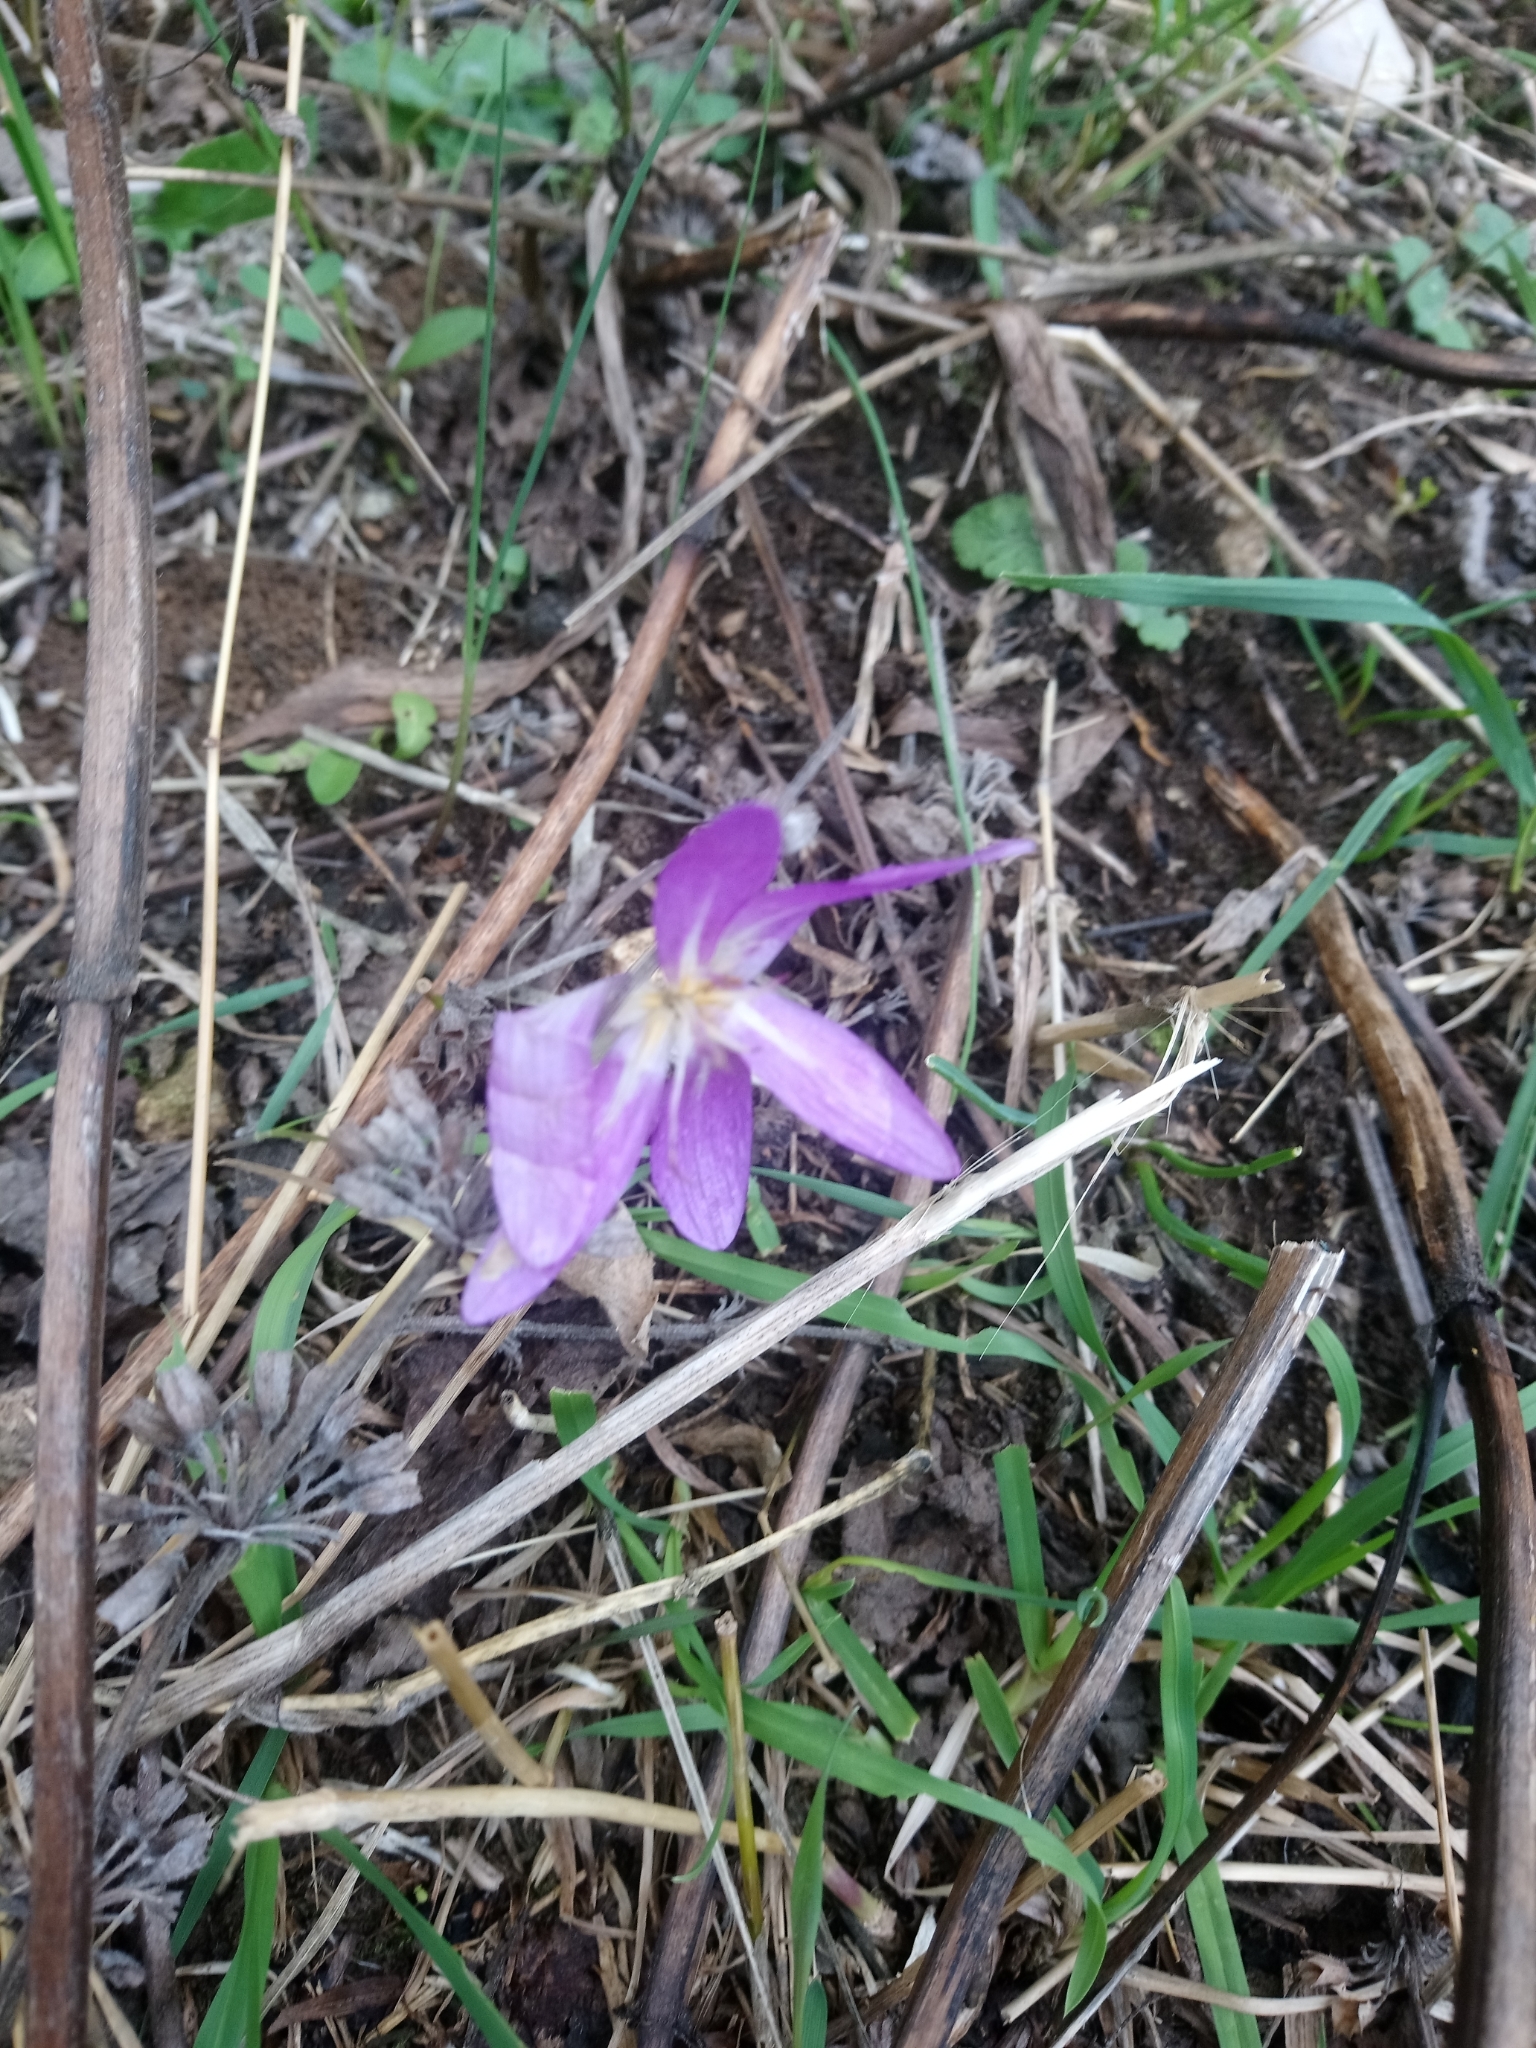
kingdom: Plantae
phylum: Tracheophyta
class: Liliopsida
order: Liliales
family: Colchicaceae
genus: Colchicum
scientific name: Colchicum autumnale
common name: Autumn crocus
